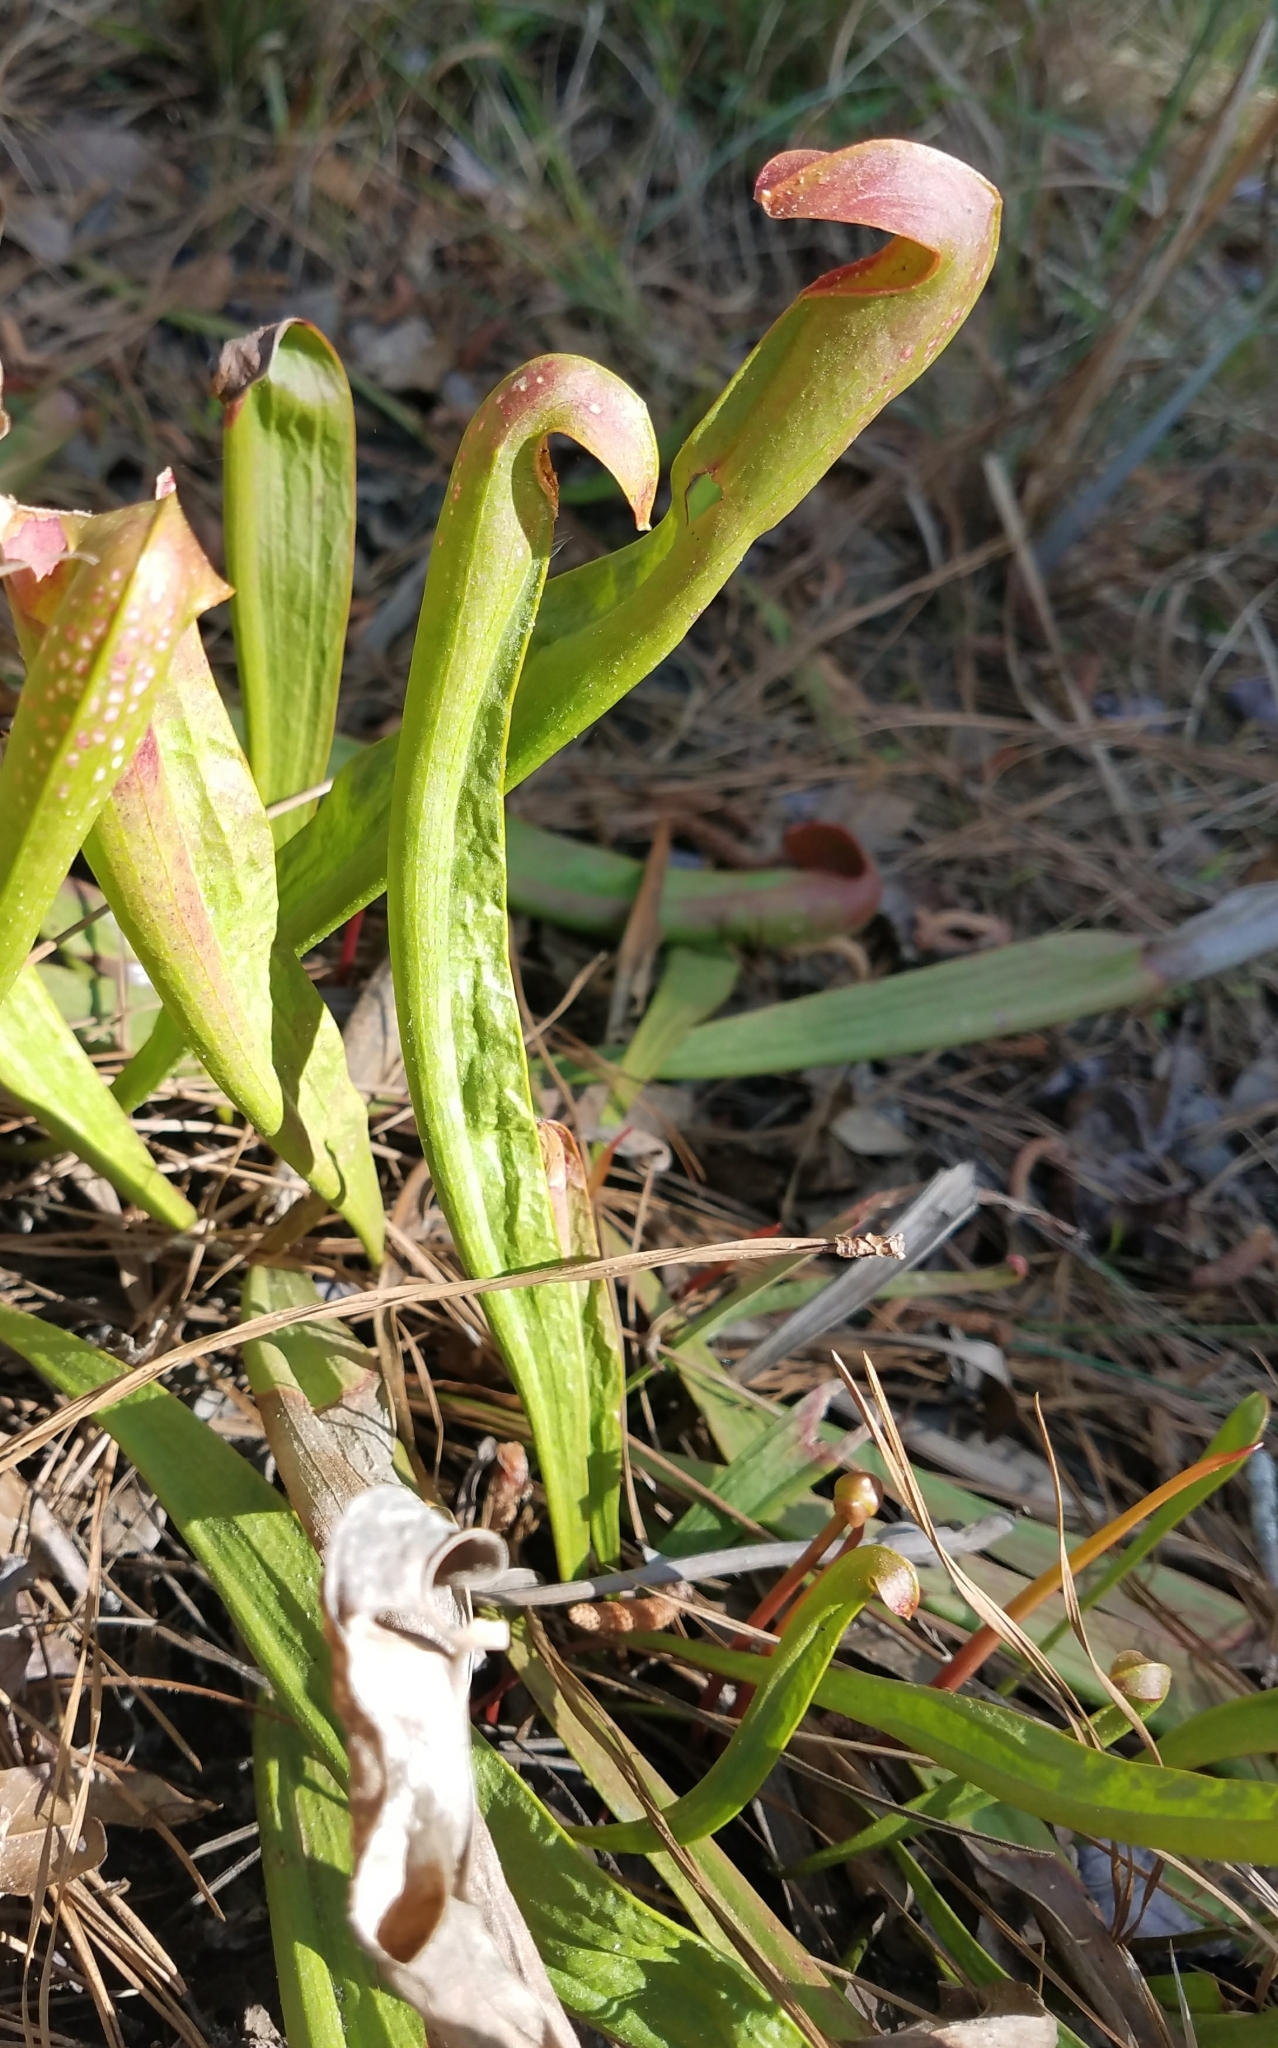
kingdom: Plantae
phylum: Tracheophyta
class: Magnoliopsida
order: Ericales
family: Sarraceniaceae
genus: Sarracenia
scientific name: Sarracenia minor
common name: Rainhat-trumpet
